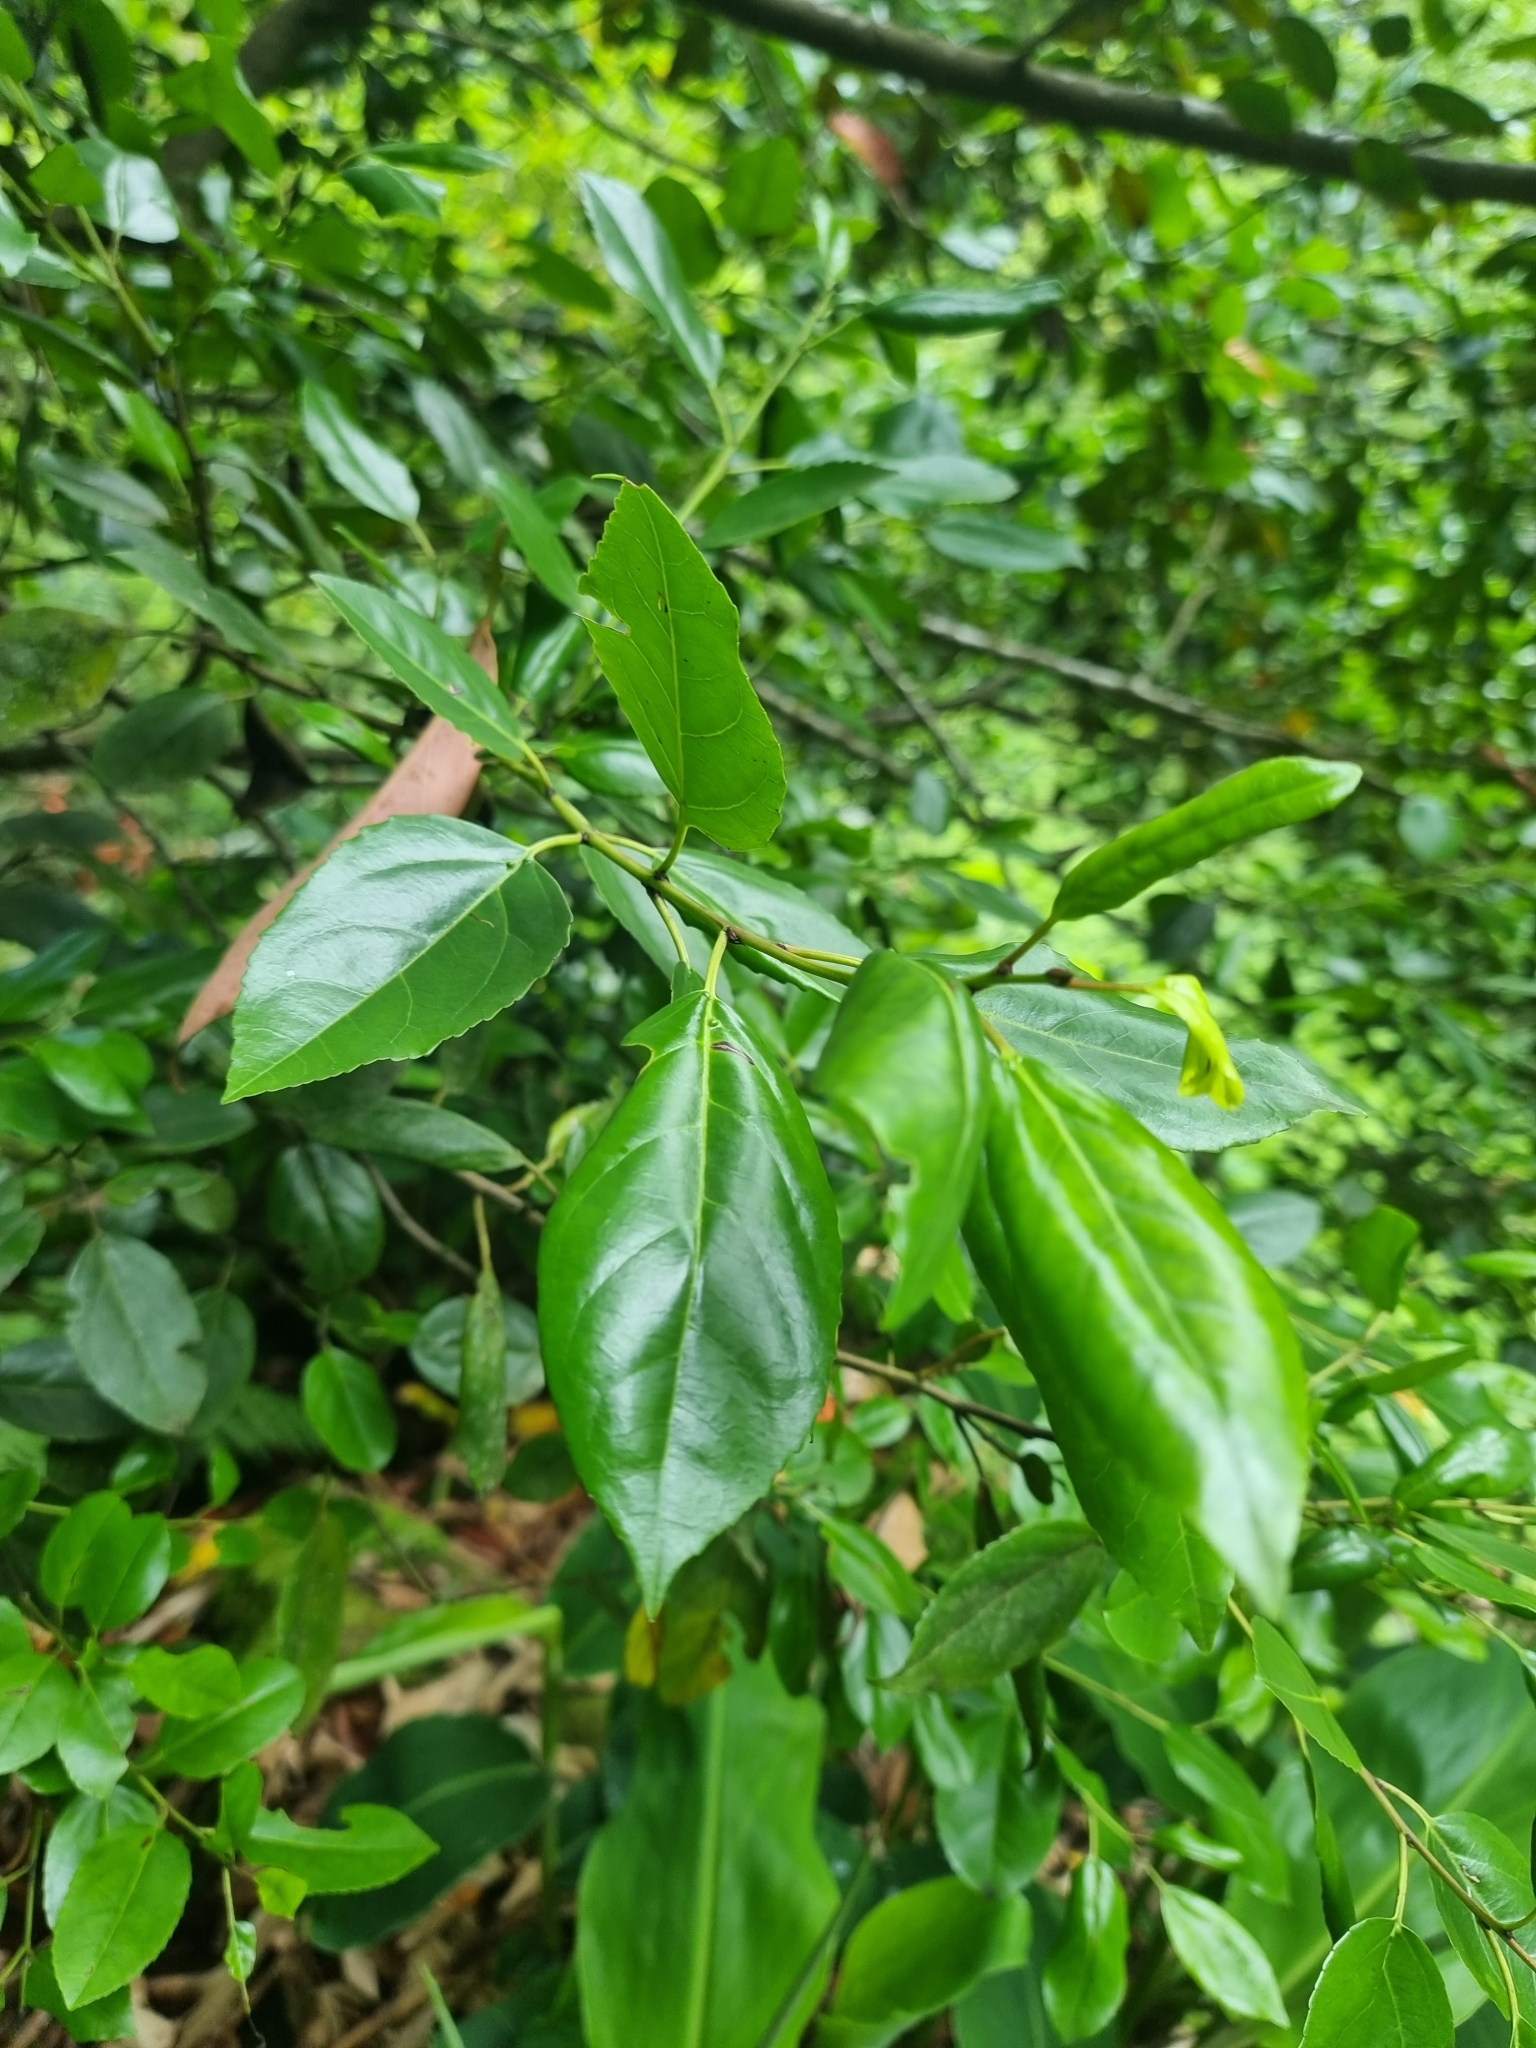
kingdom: Plantae
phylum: Tracheophyta
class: Magnoliopsida
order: Rosales
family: Rhamnaceae
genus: Rhamnus
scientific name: Rhamnus glandulosa
